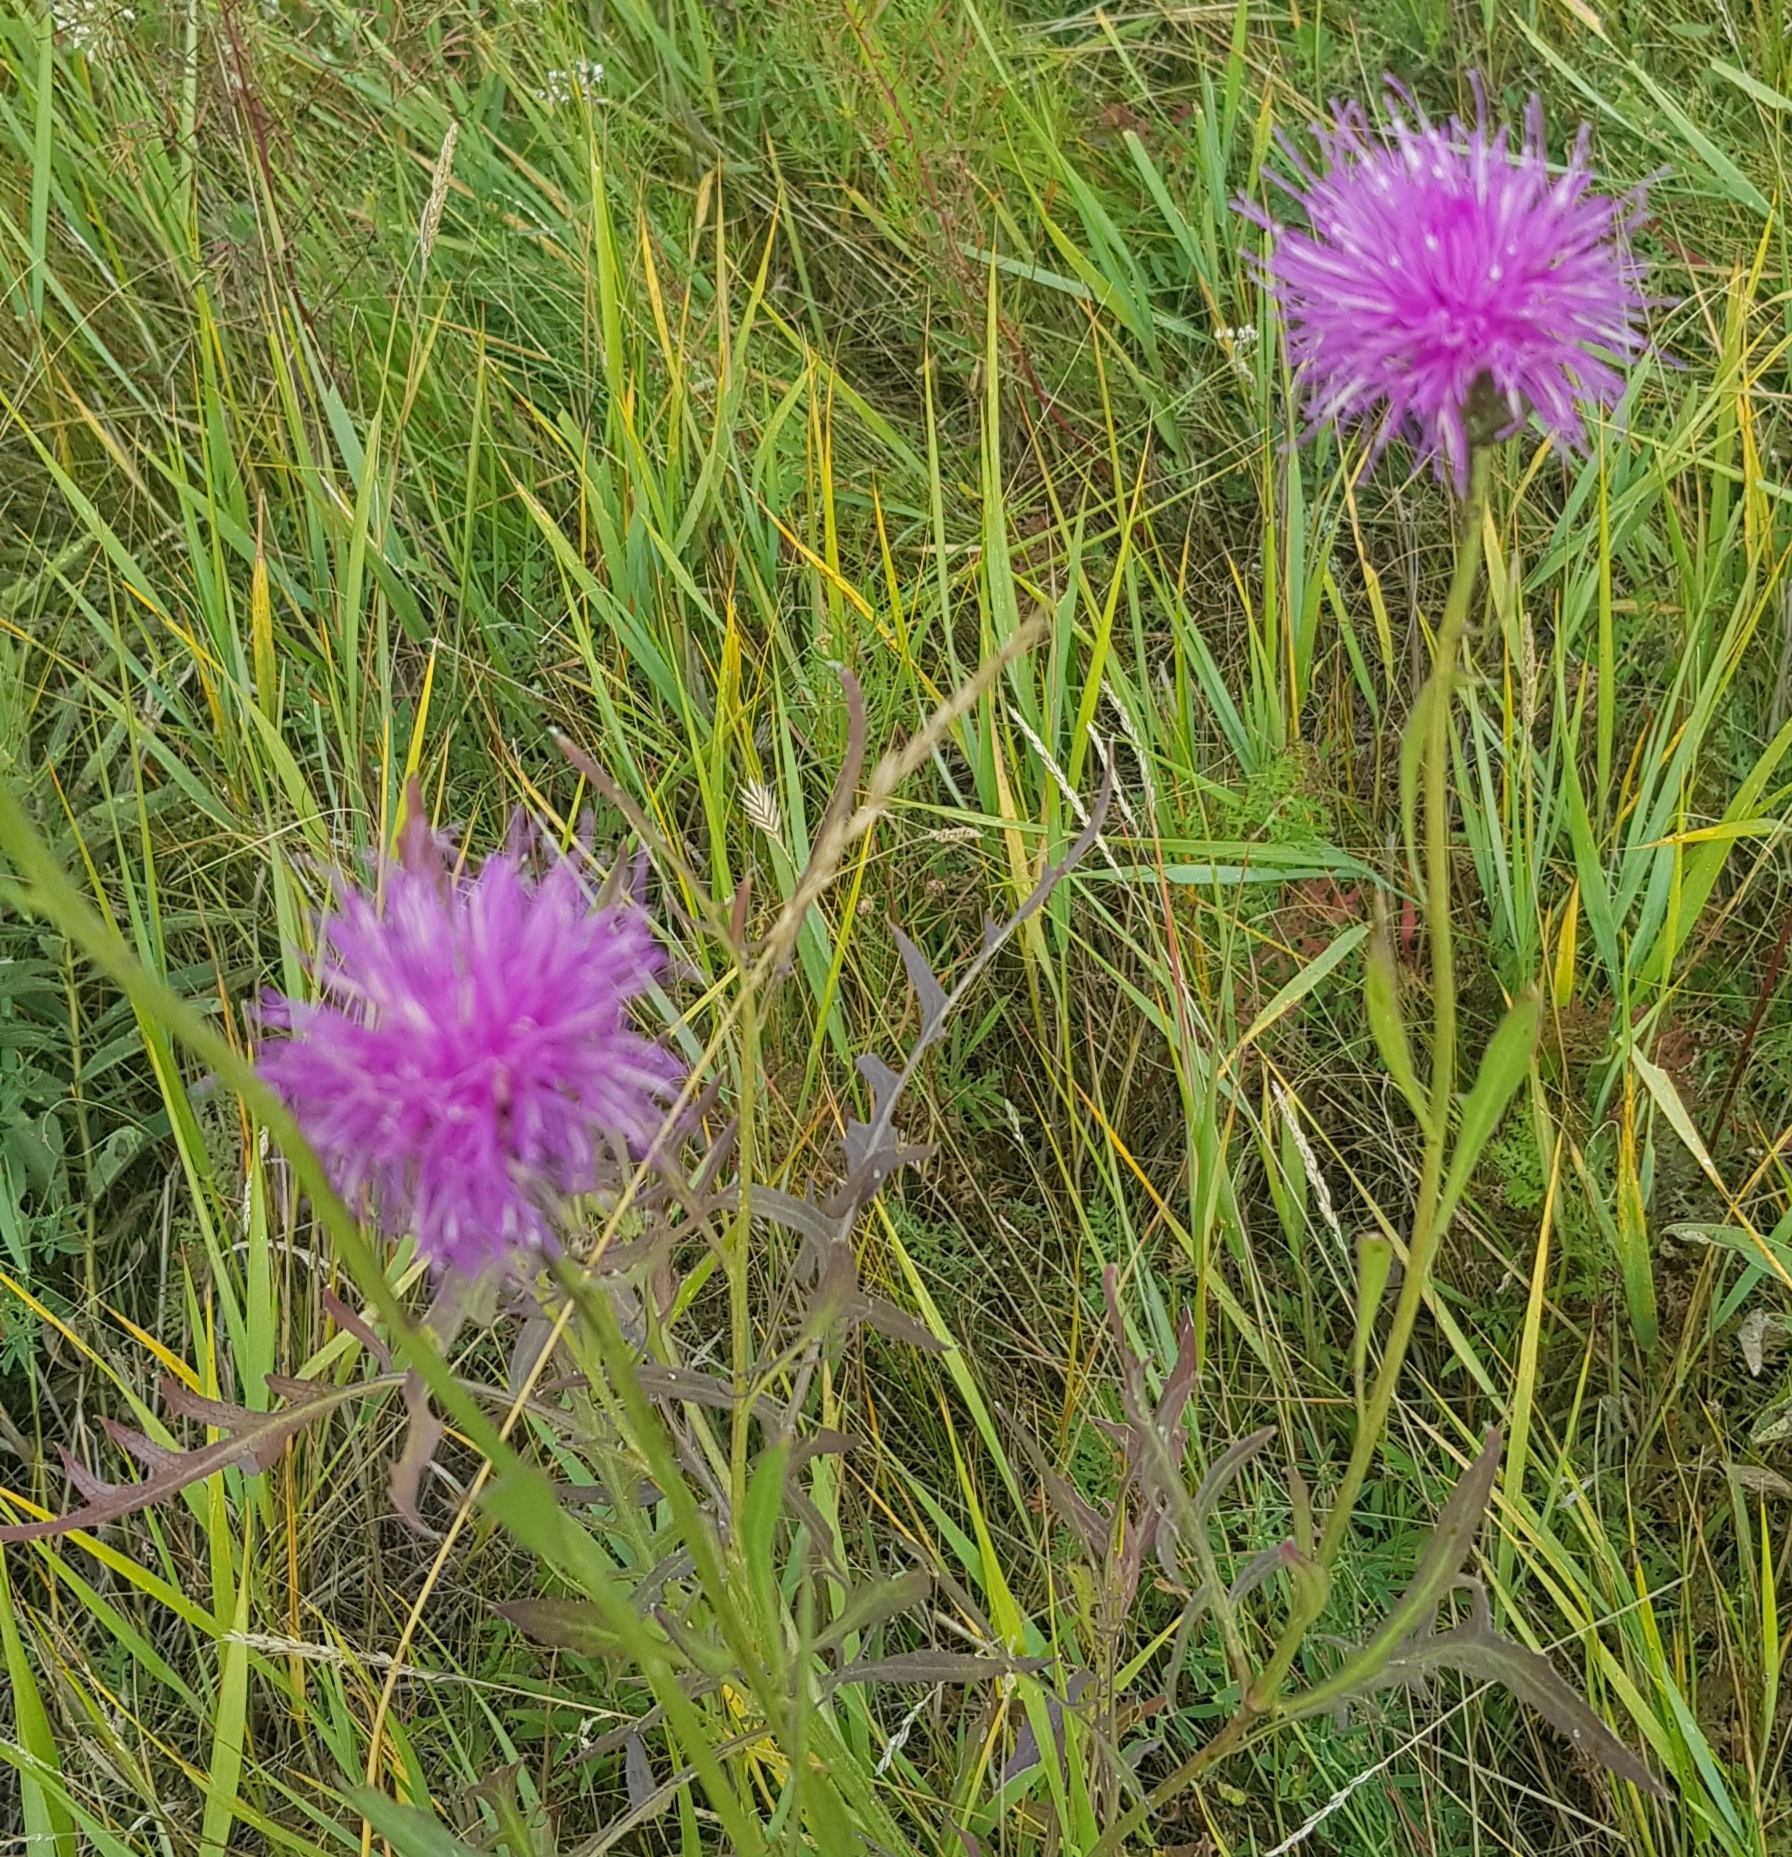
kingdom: Plantae
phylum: Tracheophyta
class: Magnoliopsida
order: Asterales
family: Asteraceae
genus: Klasea
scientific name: Klasea centauroides
